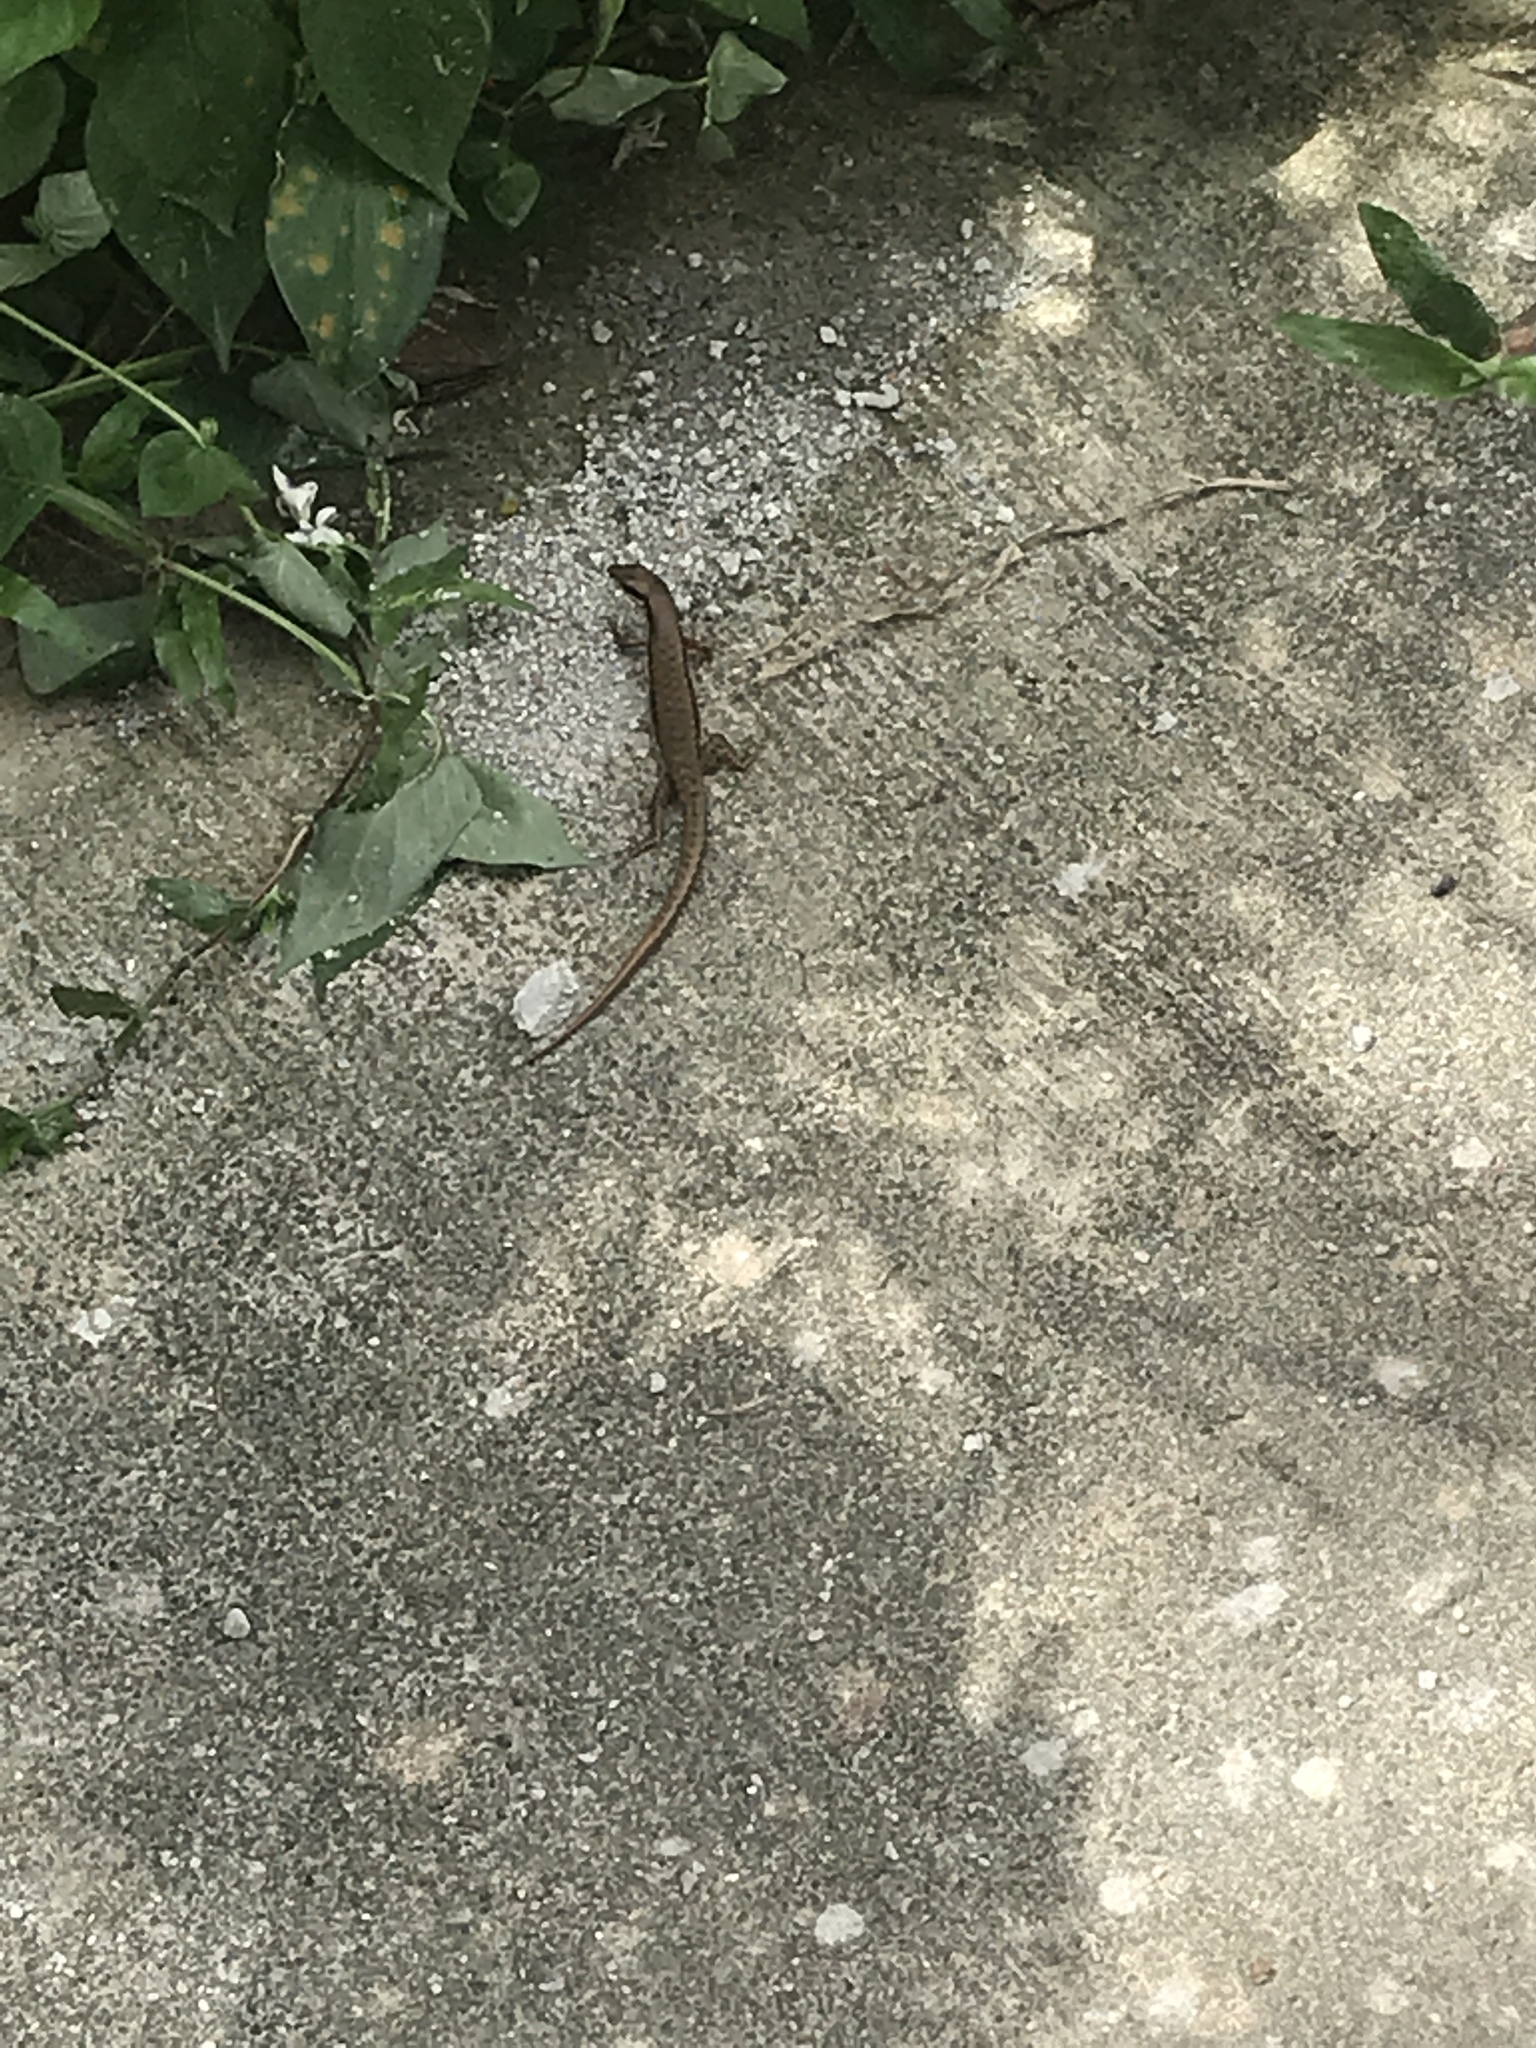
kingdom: Animalia
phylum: Chordata
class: Squamata
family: Scincidae
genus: Eutropis
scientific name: Eutropis multifasciata
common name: Common mabuya
